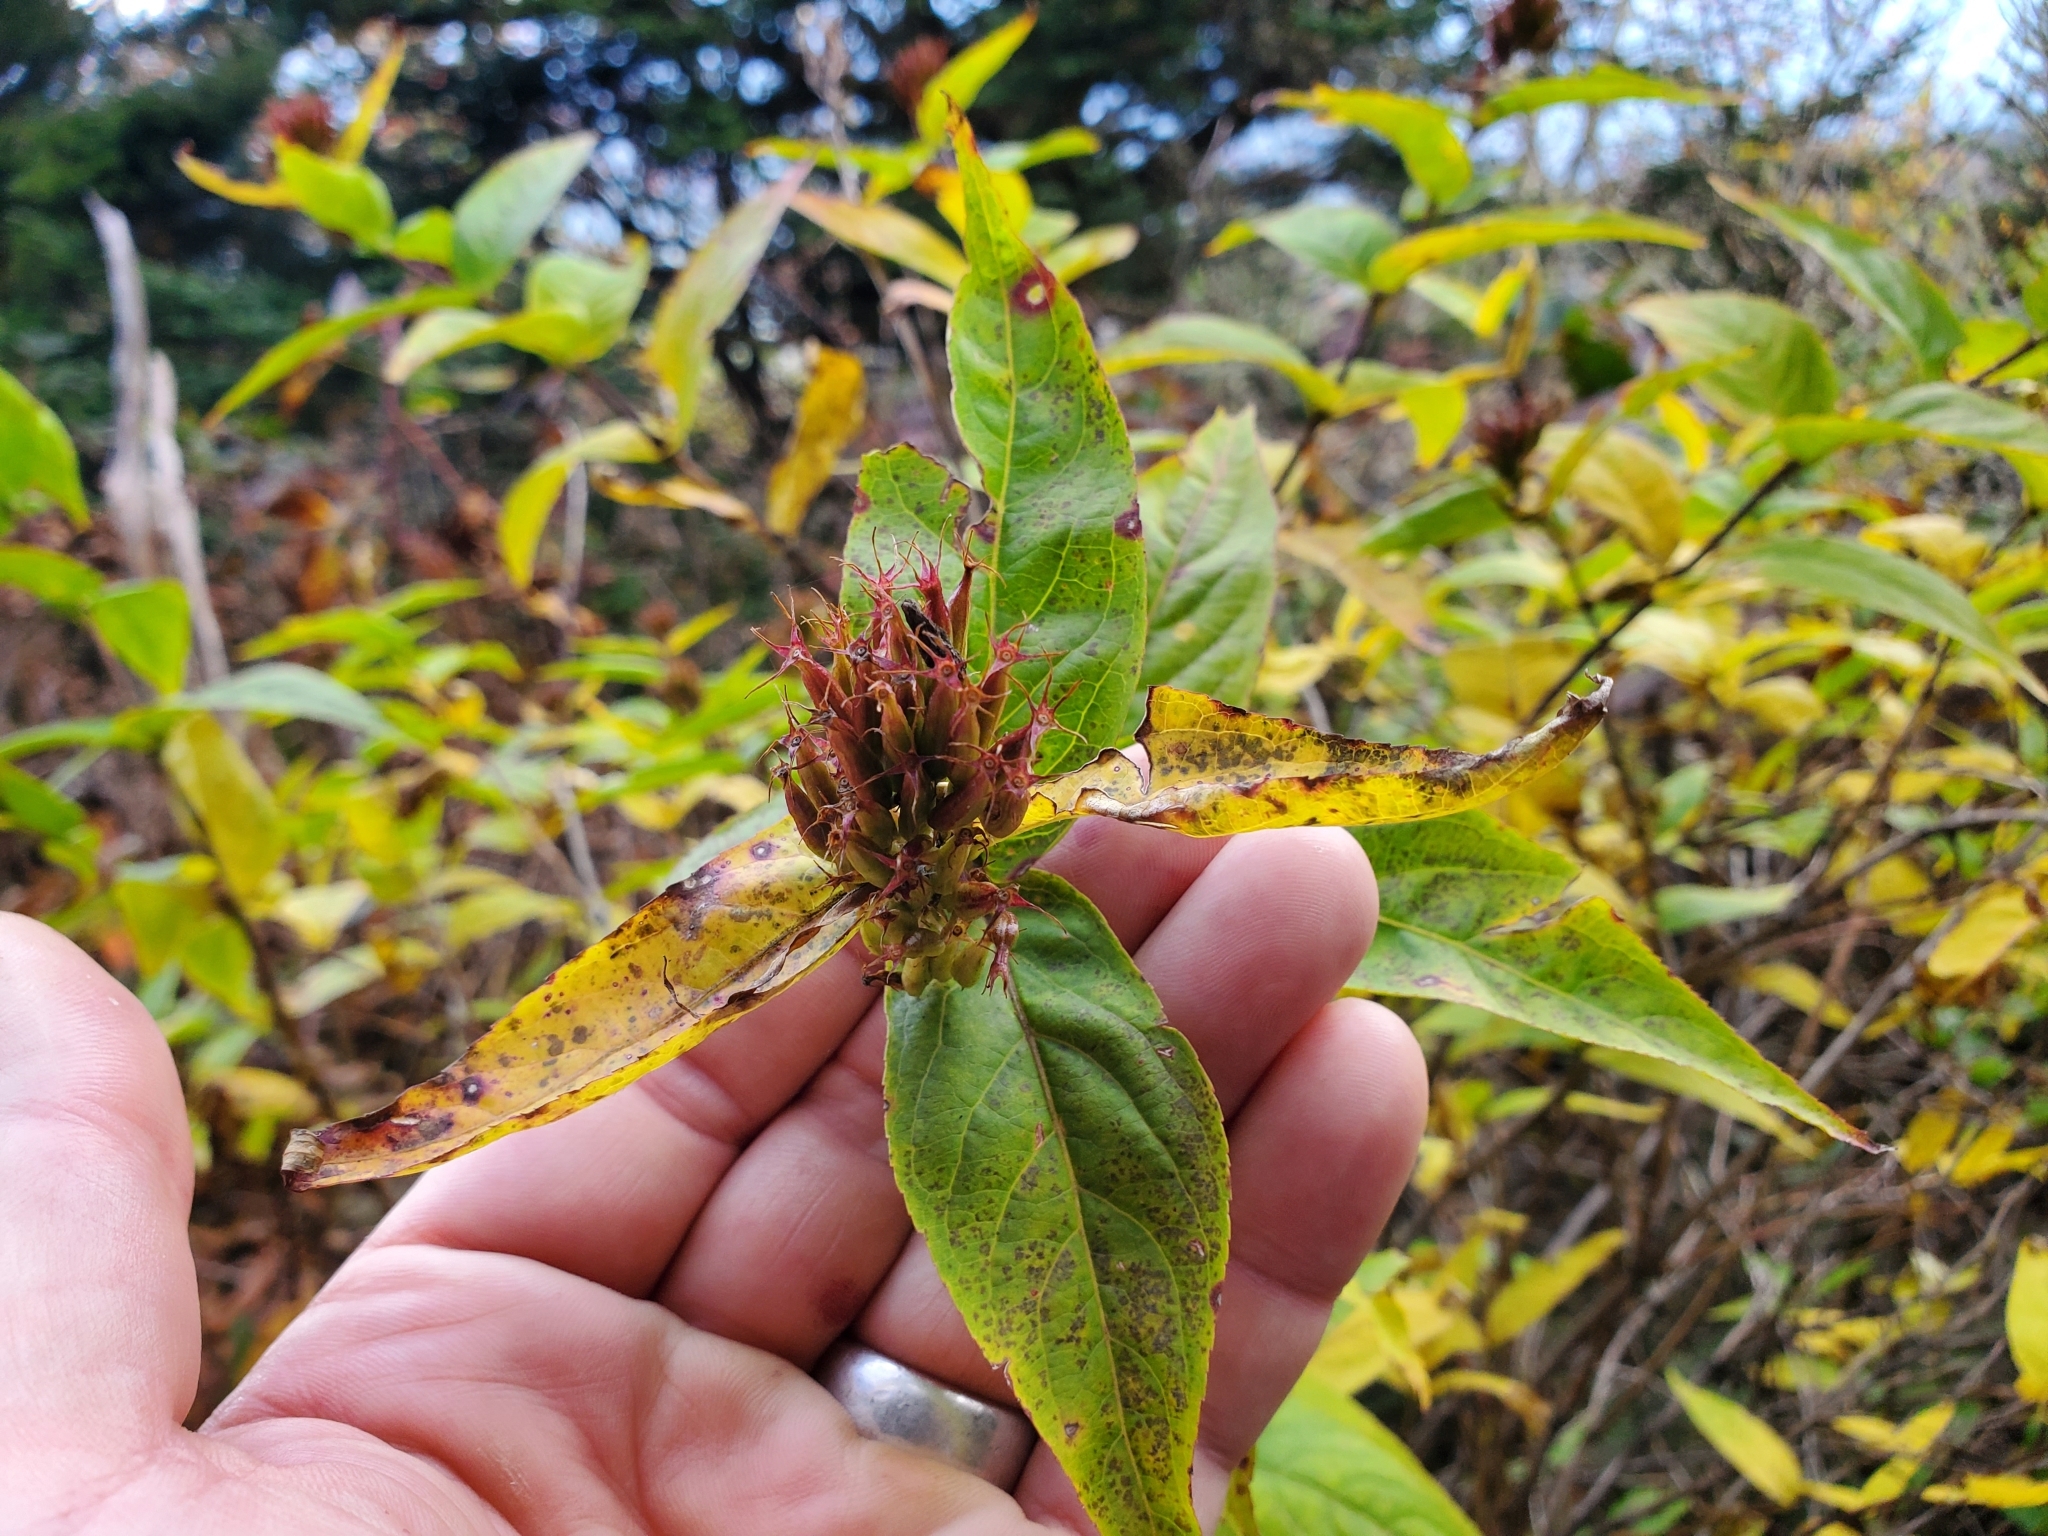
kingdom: Plantae
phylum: Tracheophyta
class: Magnoliopsida
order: Dipsacales
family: Caprifoliaceae
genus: Diervilla
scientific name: Diervilla sessilifolia
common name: Bush-honeysuckle
